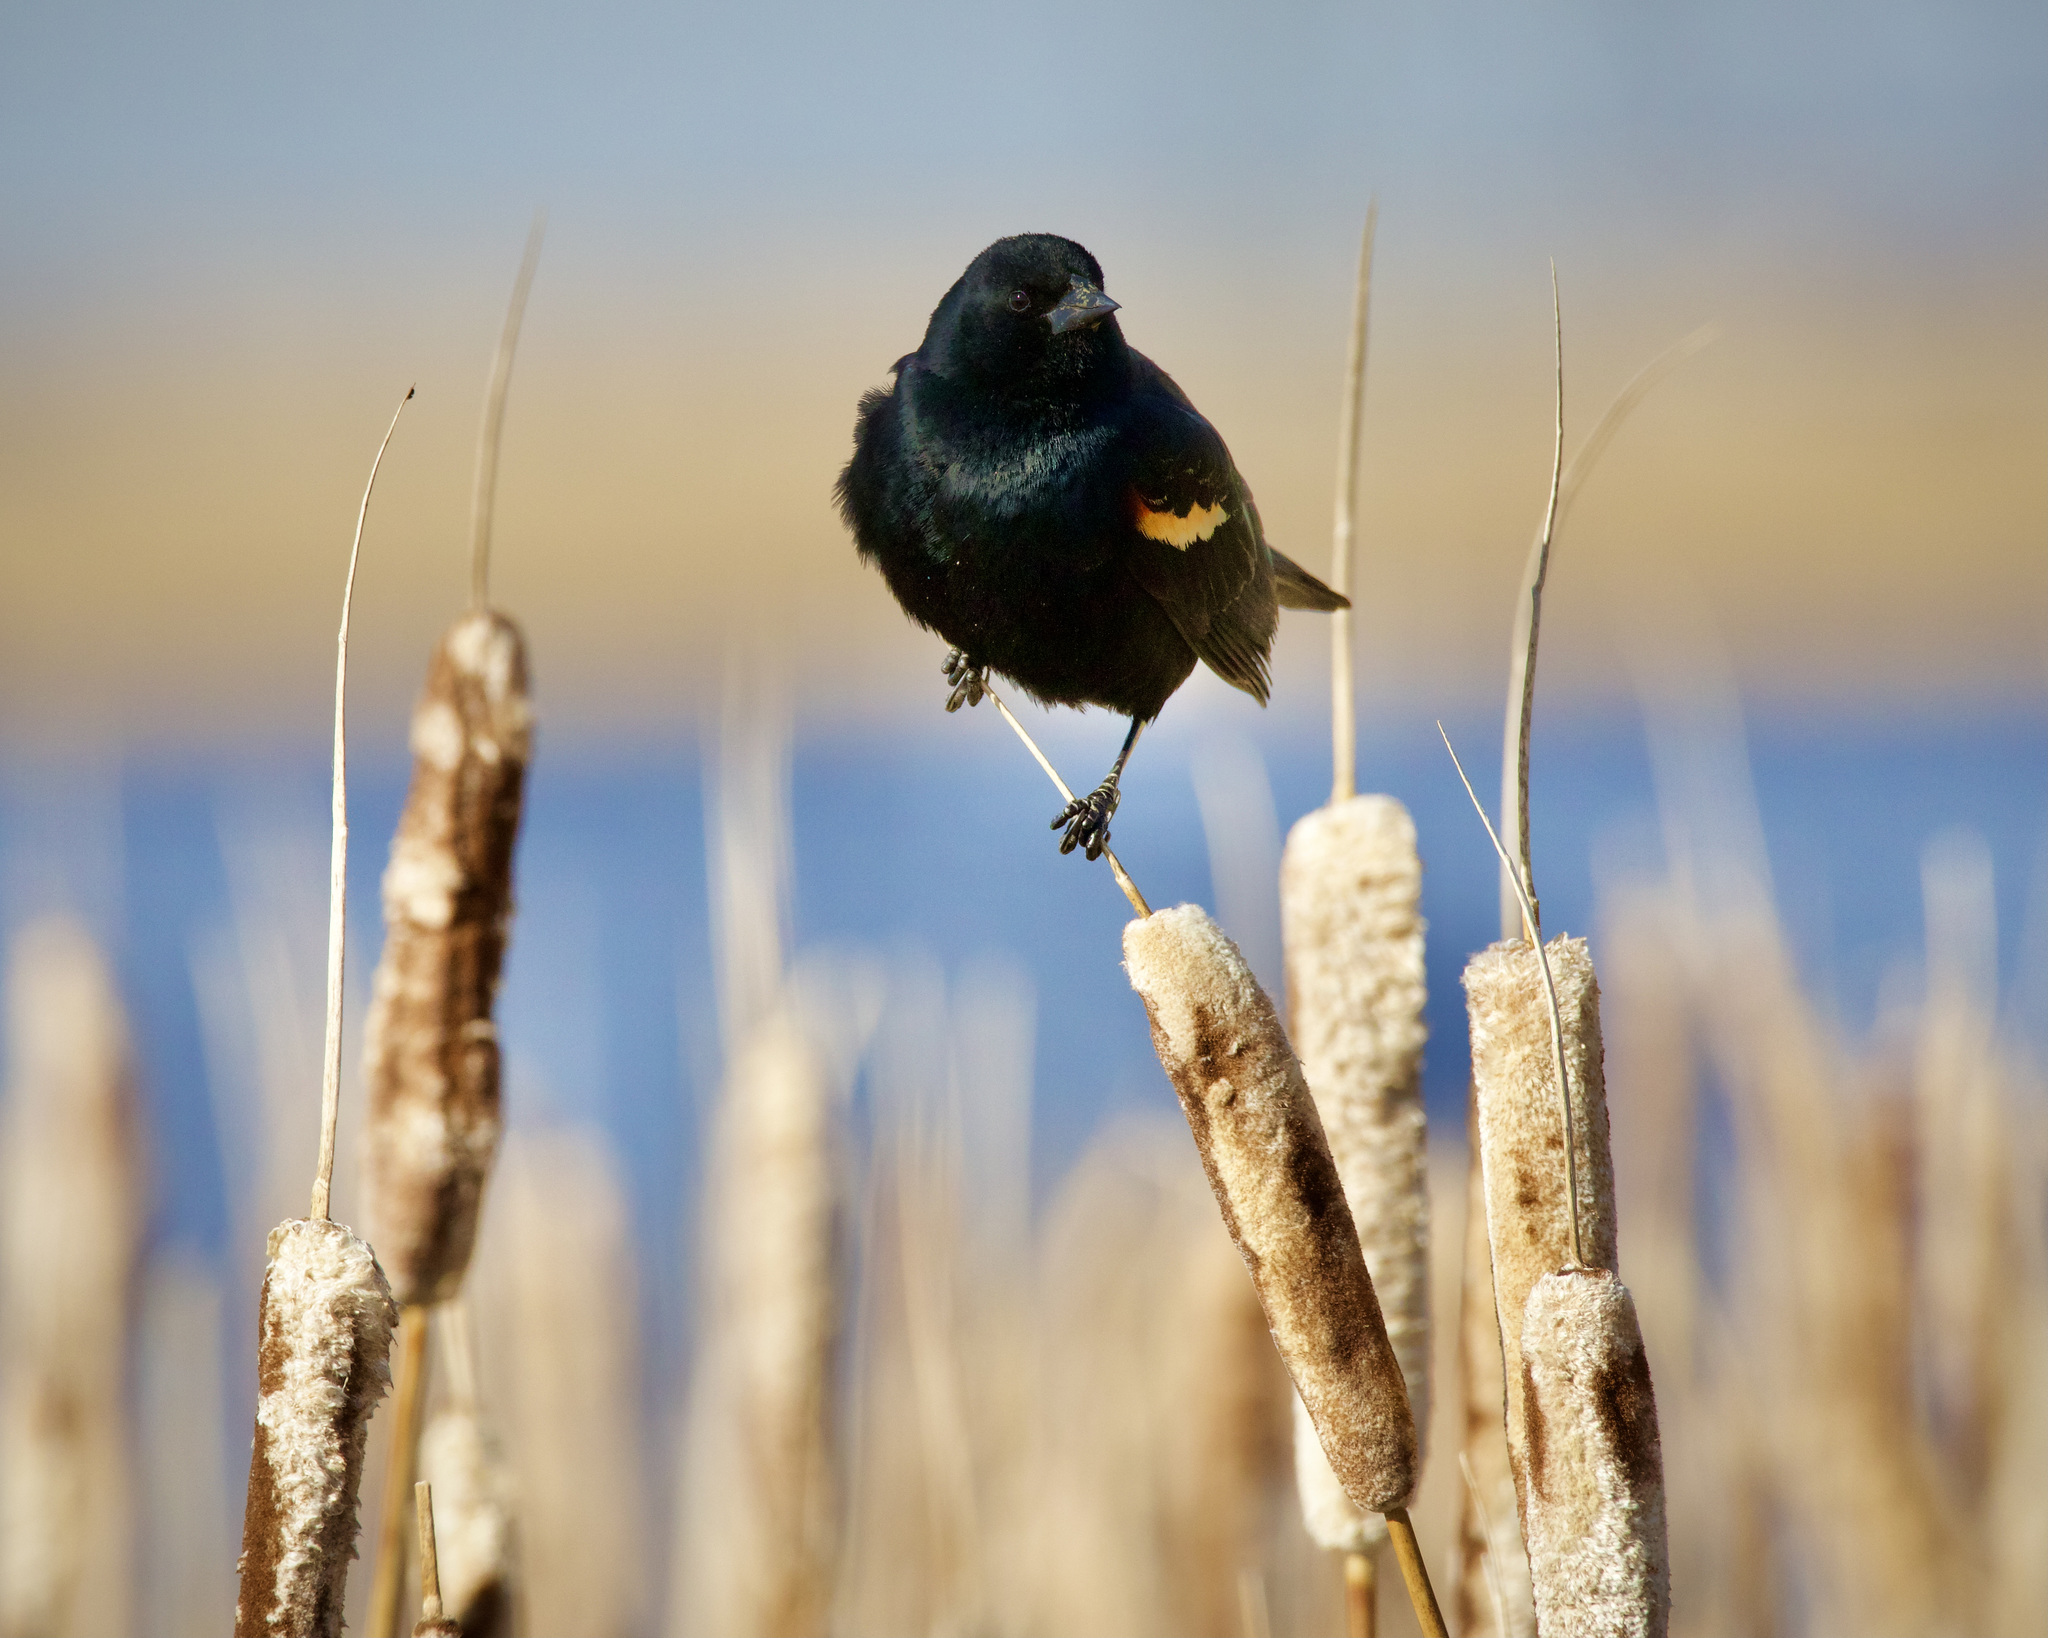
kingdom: Animalia
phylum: Chordata
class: Aves
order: Passeriformes
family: Icteridae
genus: Agelaius
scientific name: Agelaius phoeniceus
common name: Red-winged blackbird
